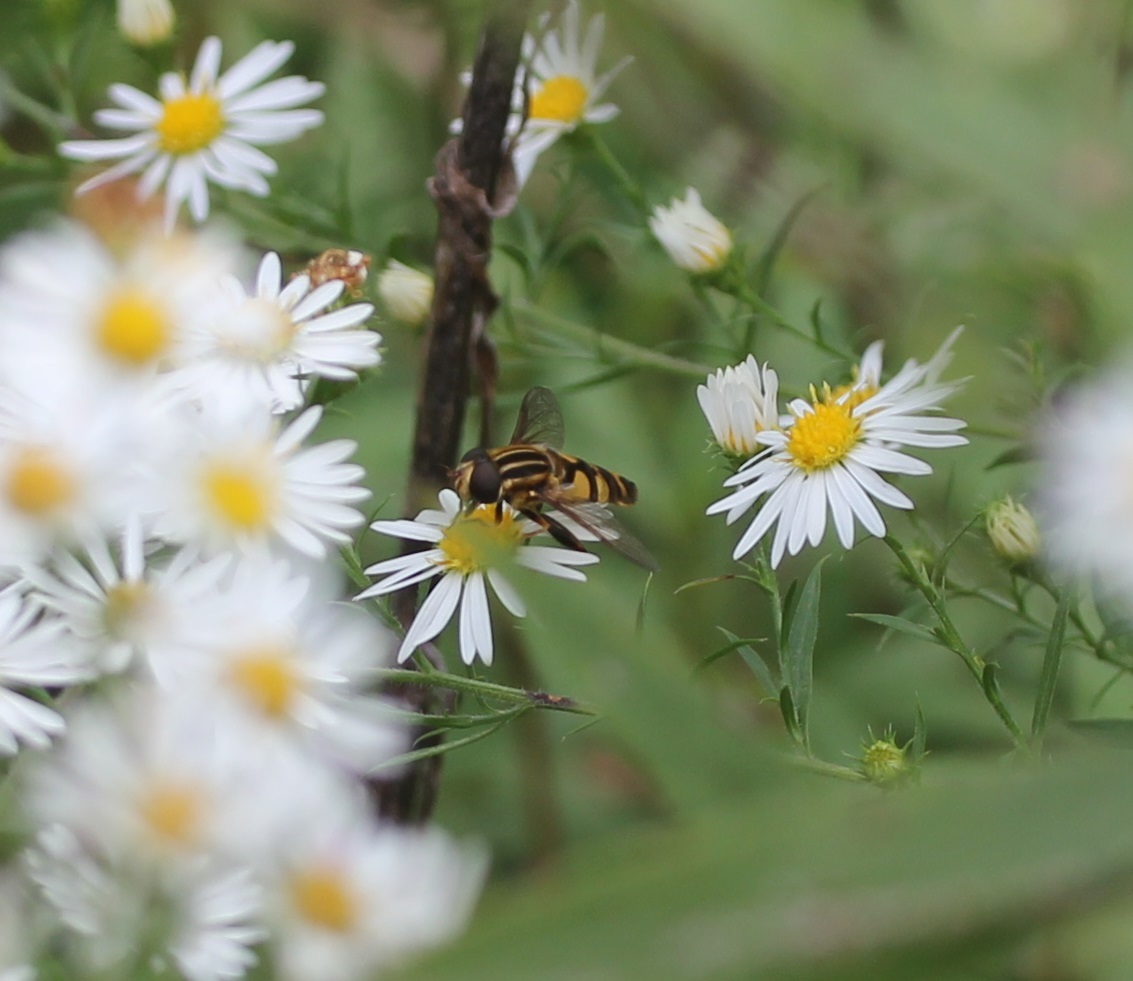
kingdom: Animalia
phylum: Arthropoda
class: Insecta
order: Diptera
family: Syrphidae
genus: Helophilus
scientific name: Helophilus fasciatus
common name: Narrow-headed marsh fly
